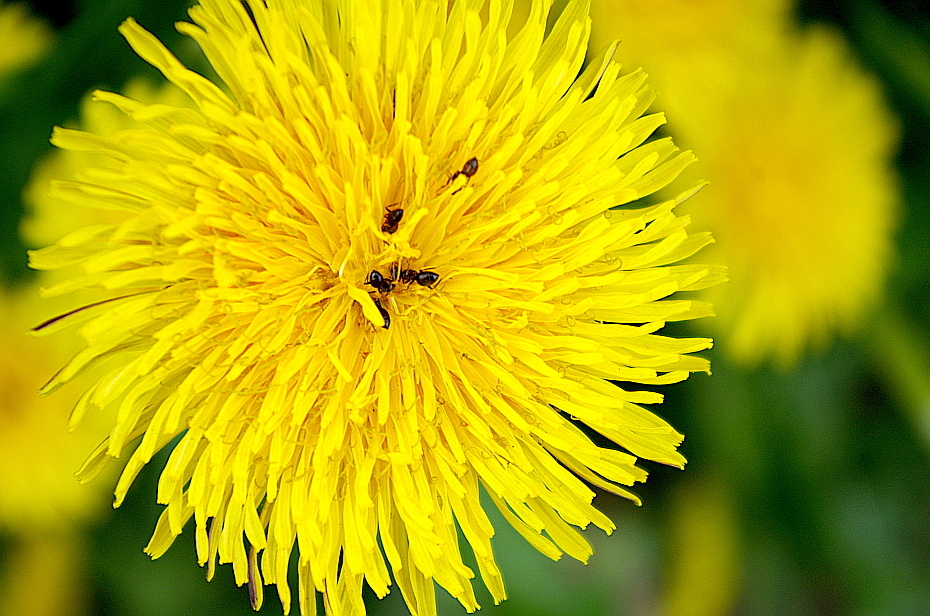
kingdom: Plantae
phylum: Tracheophyta
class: Magnoliopsida
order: Asterales
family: Asteraceae
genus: Taraxacum
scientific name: Taraxacum officinale
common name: Common dandelion
